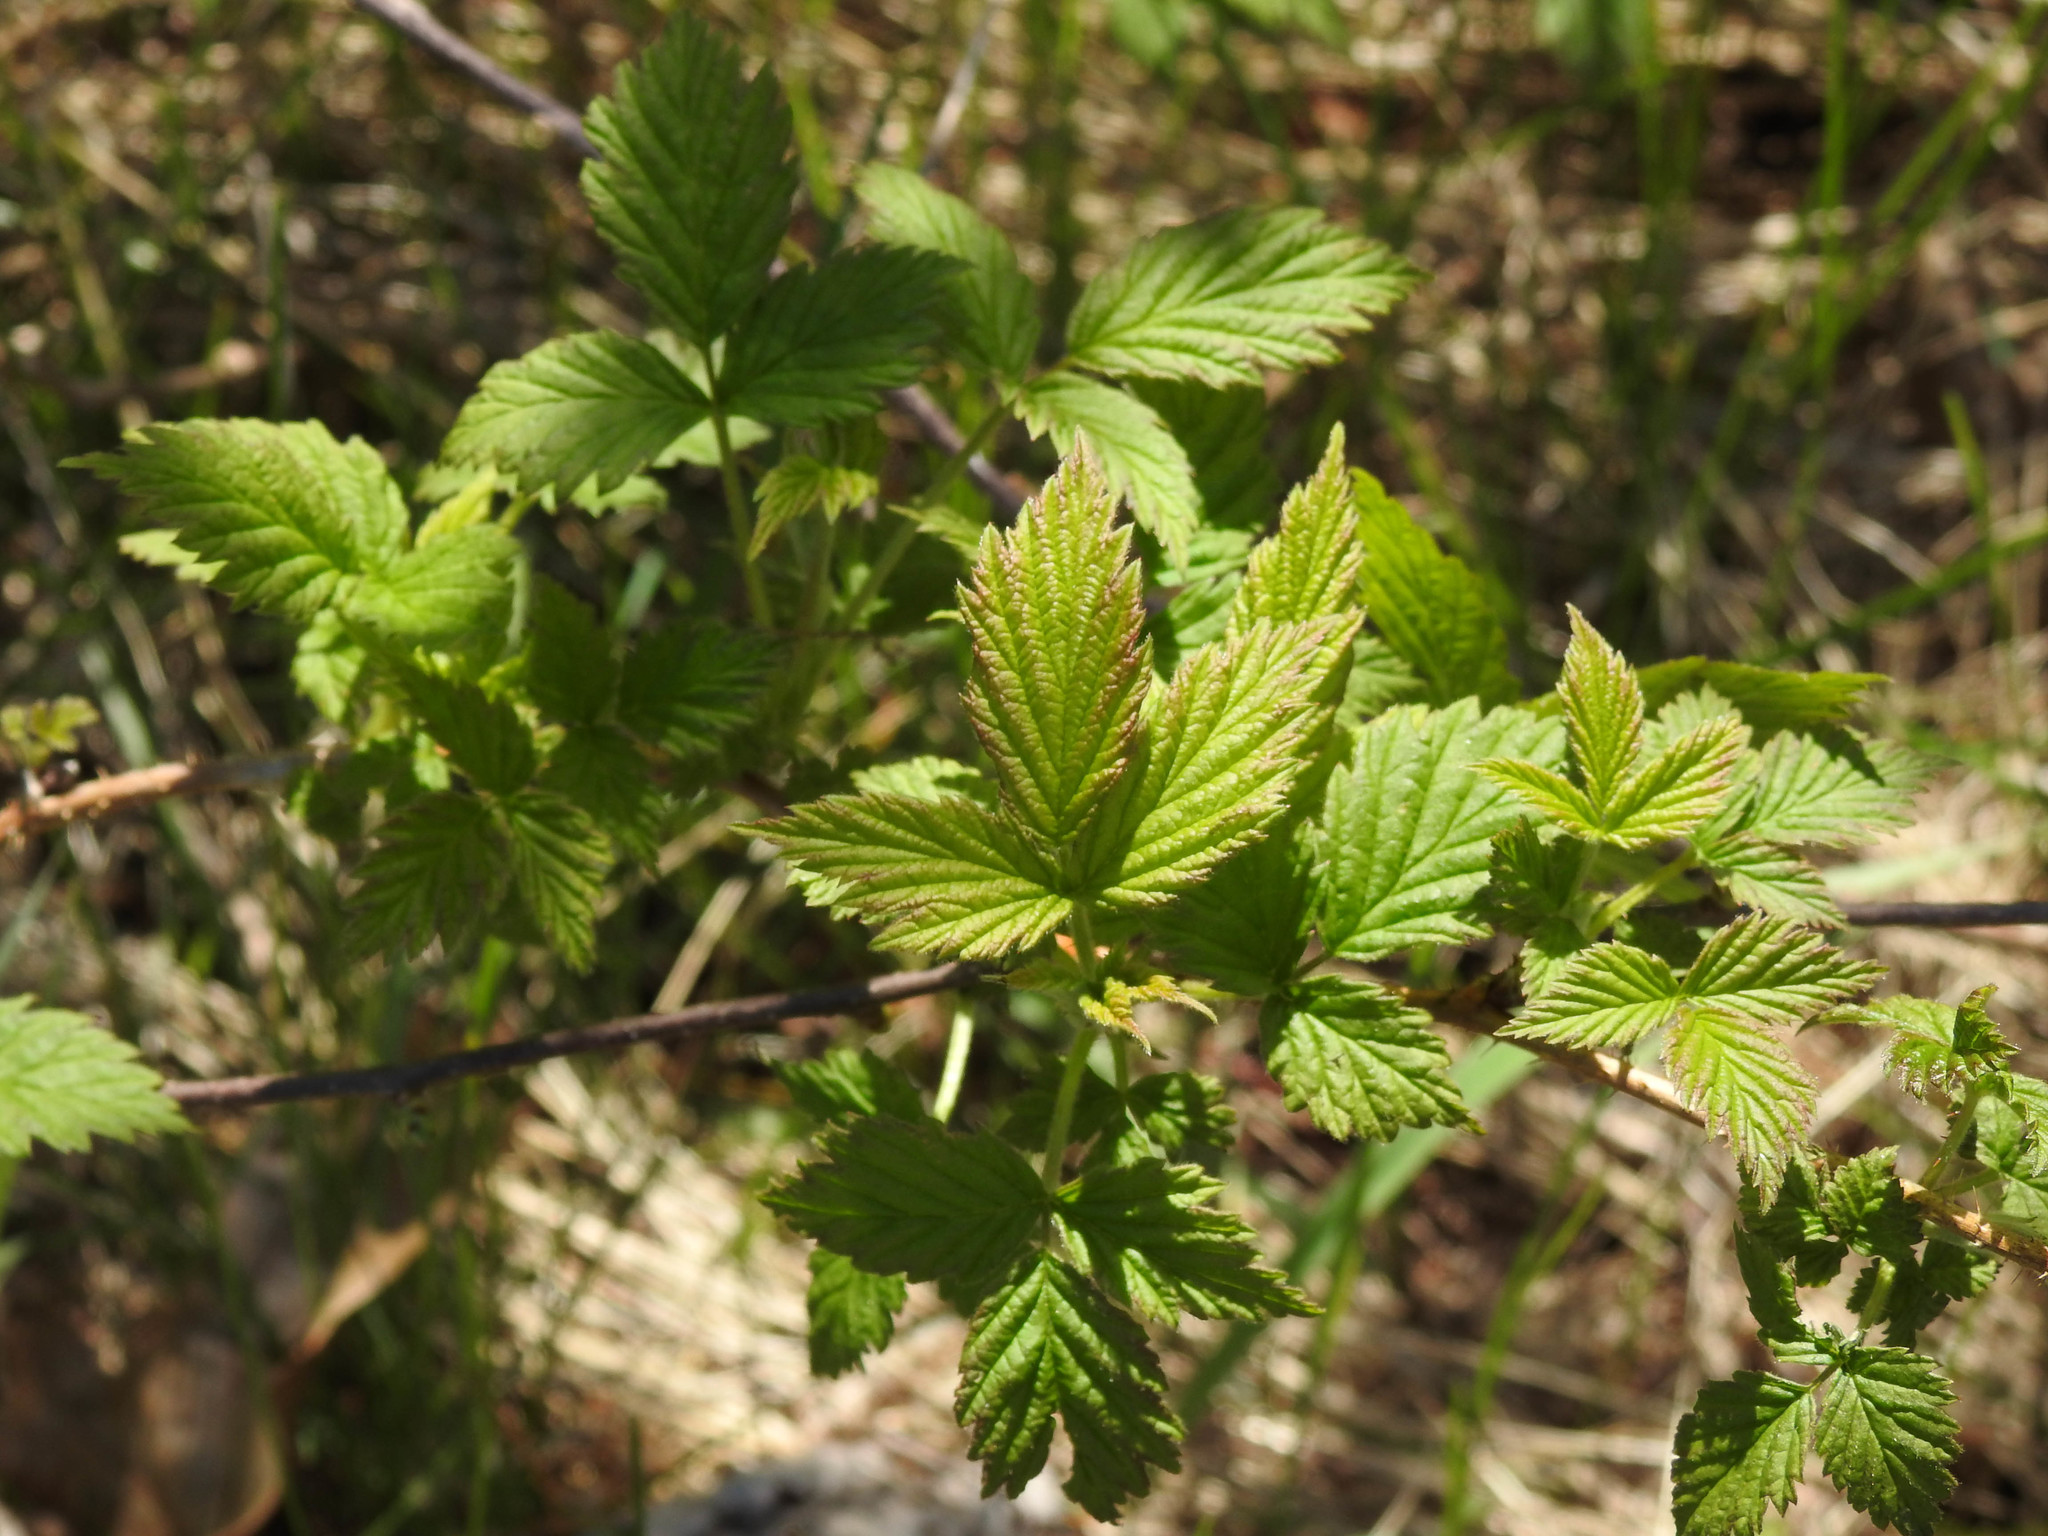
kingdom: Plantae
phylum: Tracheophyta
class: Magnoliopsida
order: Rosales
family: Rosaceae
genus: Rubus
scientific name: Rubus idaeus
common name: Raspberry
